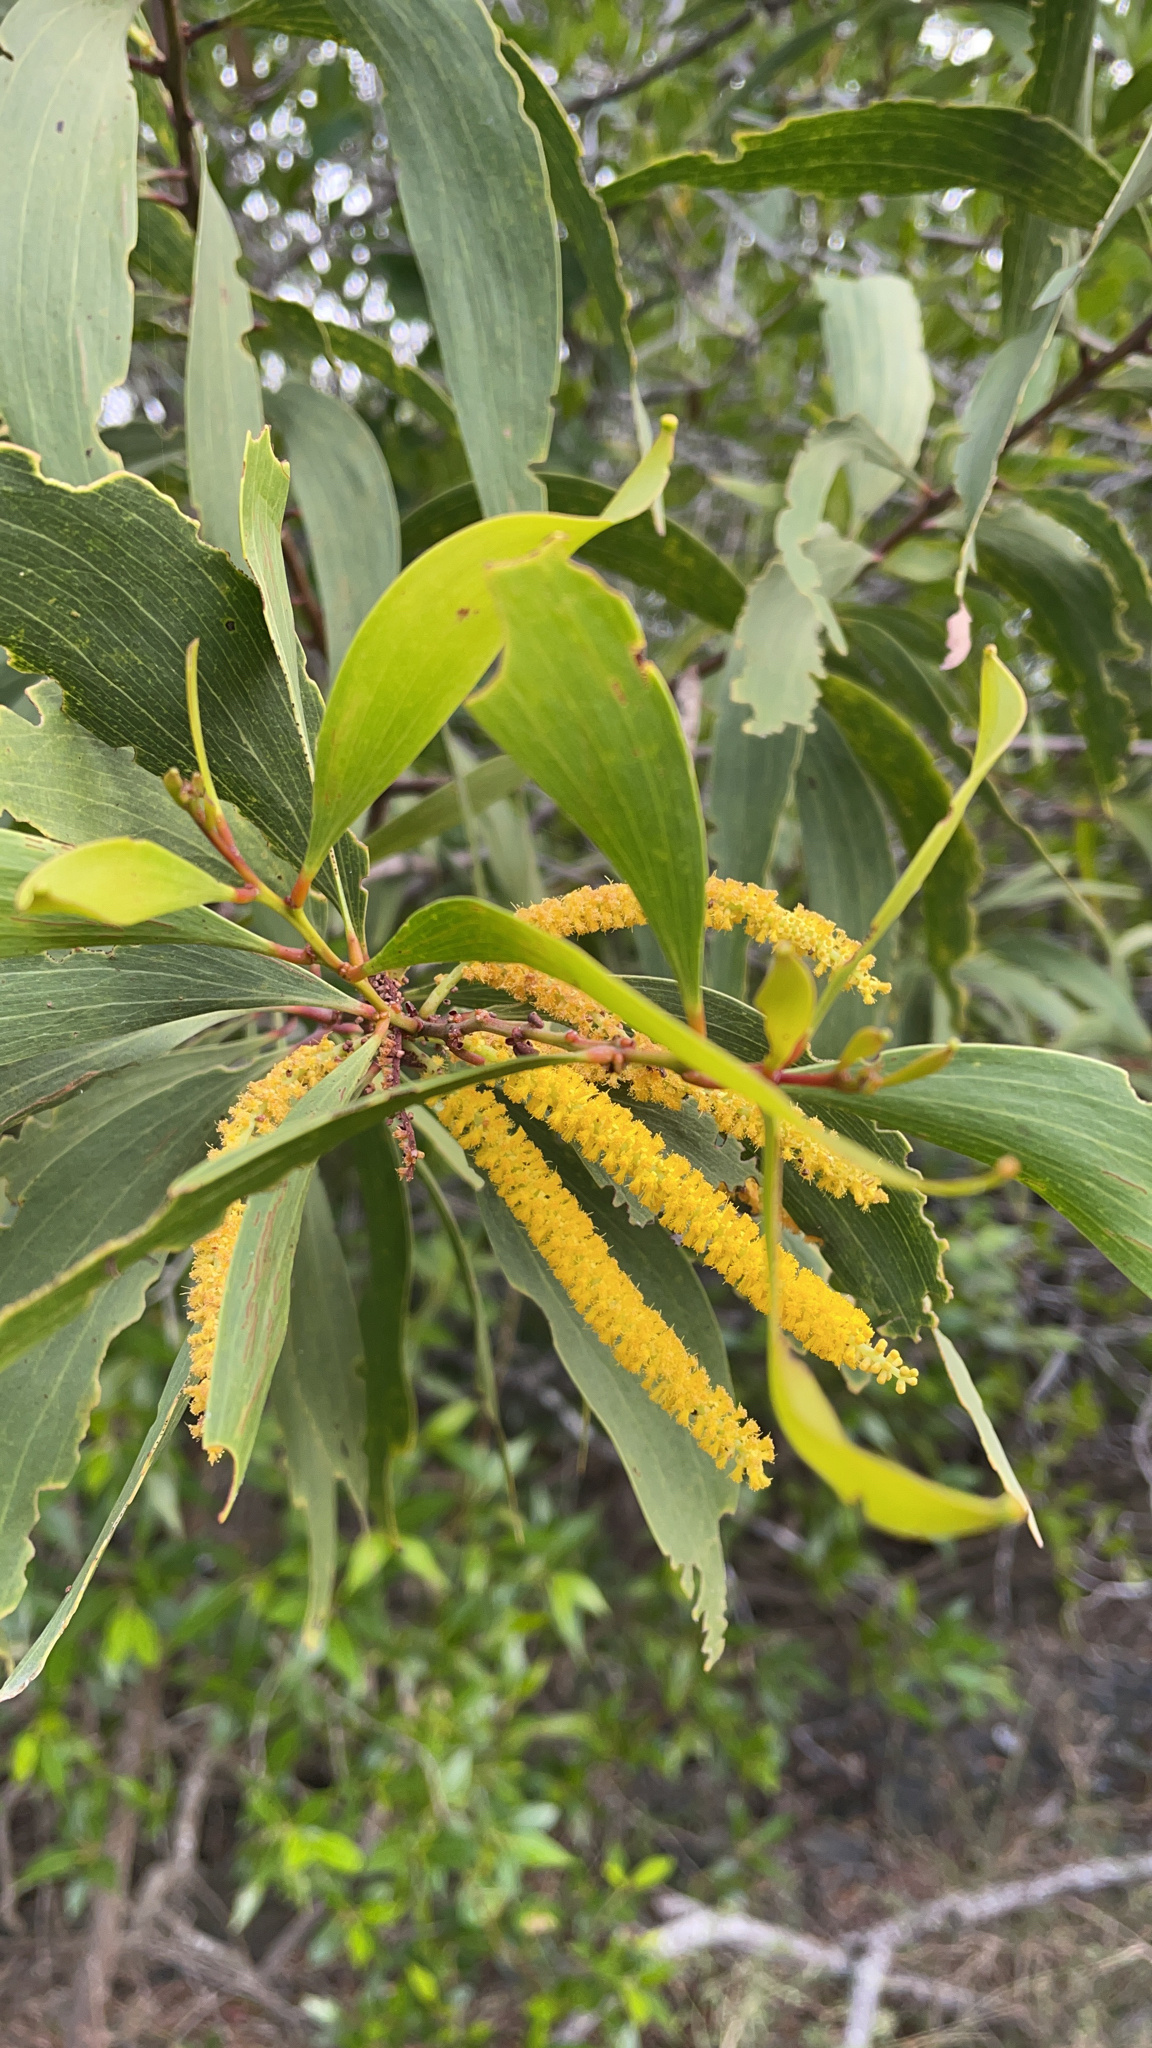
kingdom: Plantae
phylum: Tracheophyta
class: Magnoliopsida
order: Fabales
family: Fabaceae
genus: Acacia
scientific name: Acacia auriculiformis
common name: Earleaf acacia
